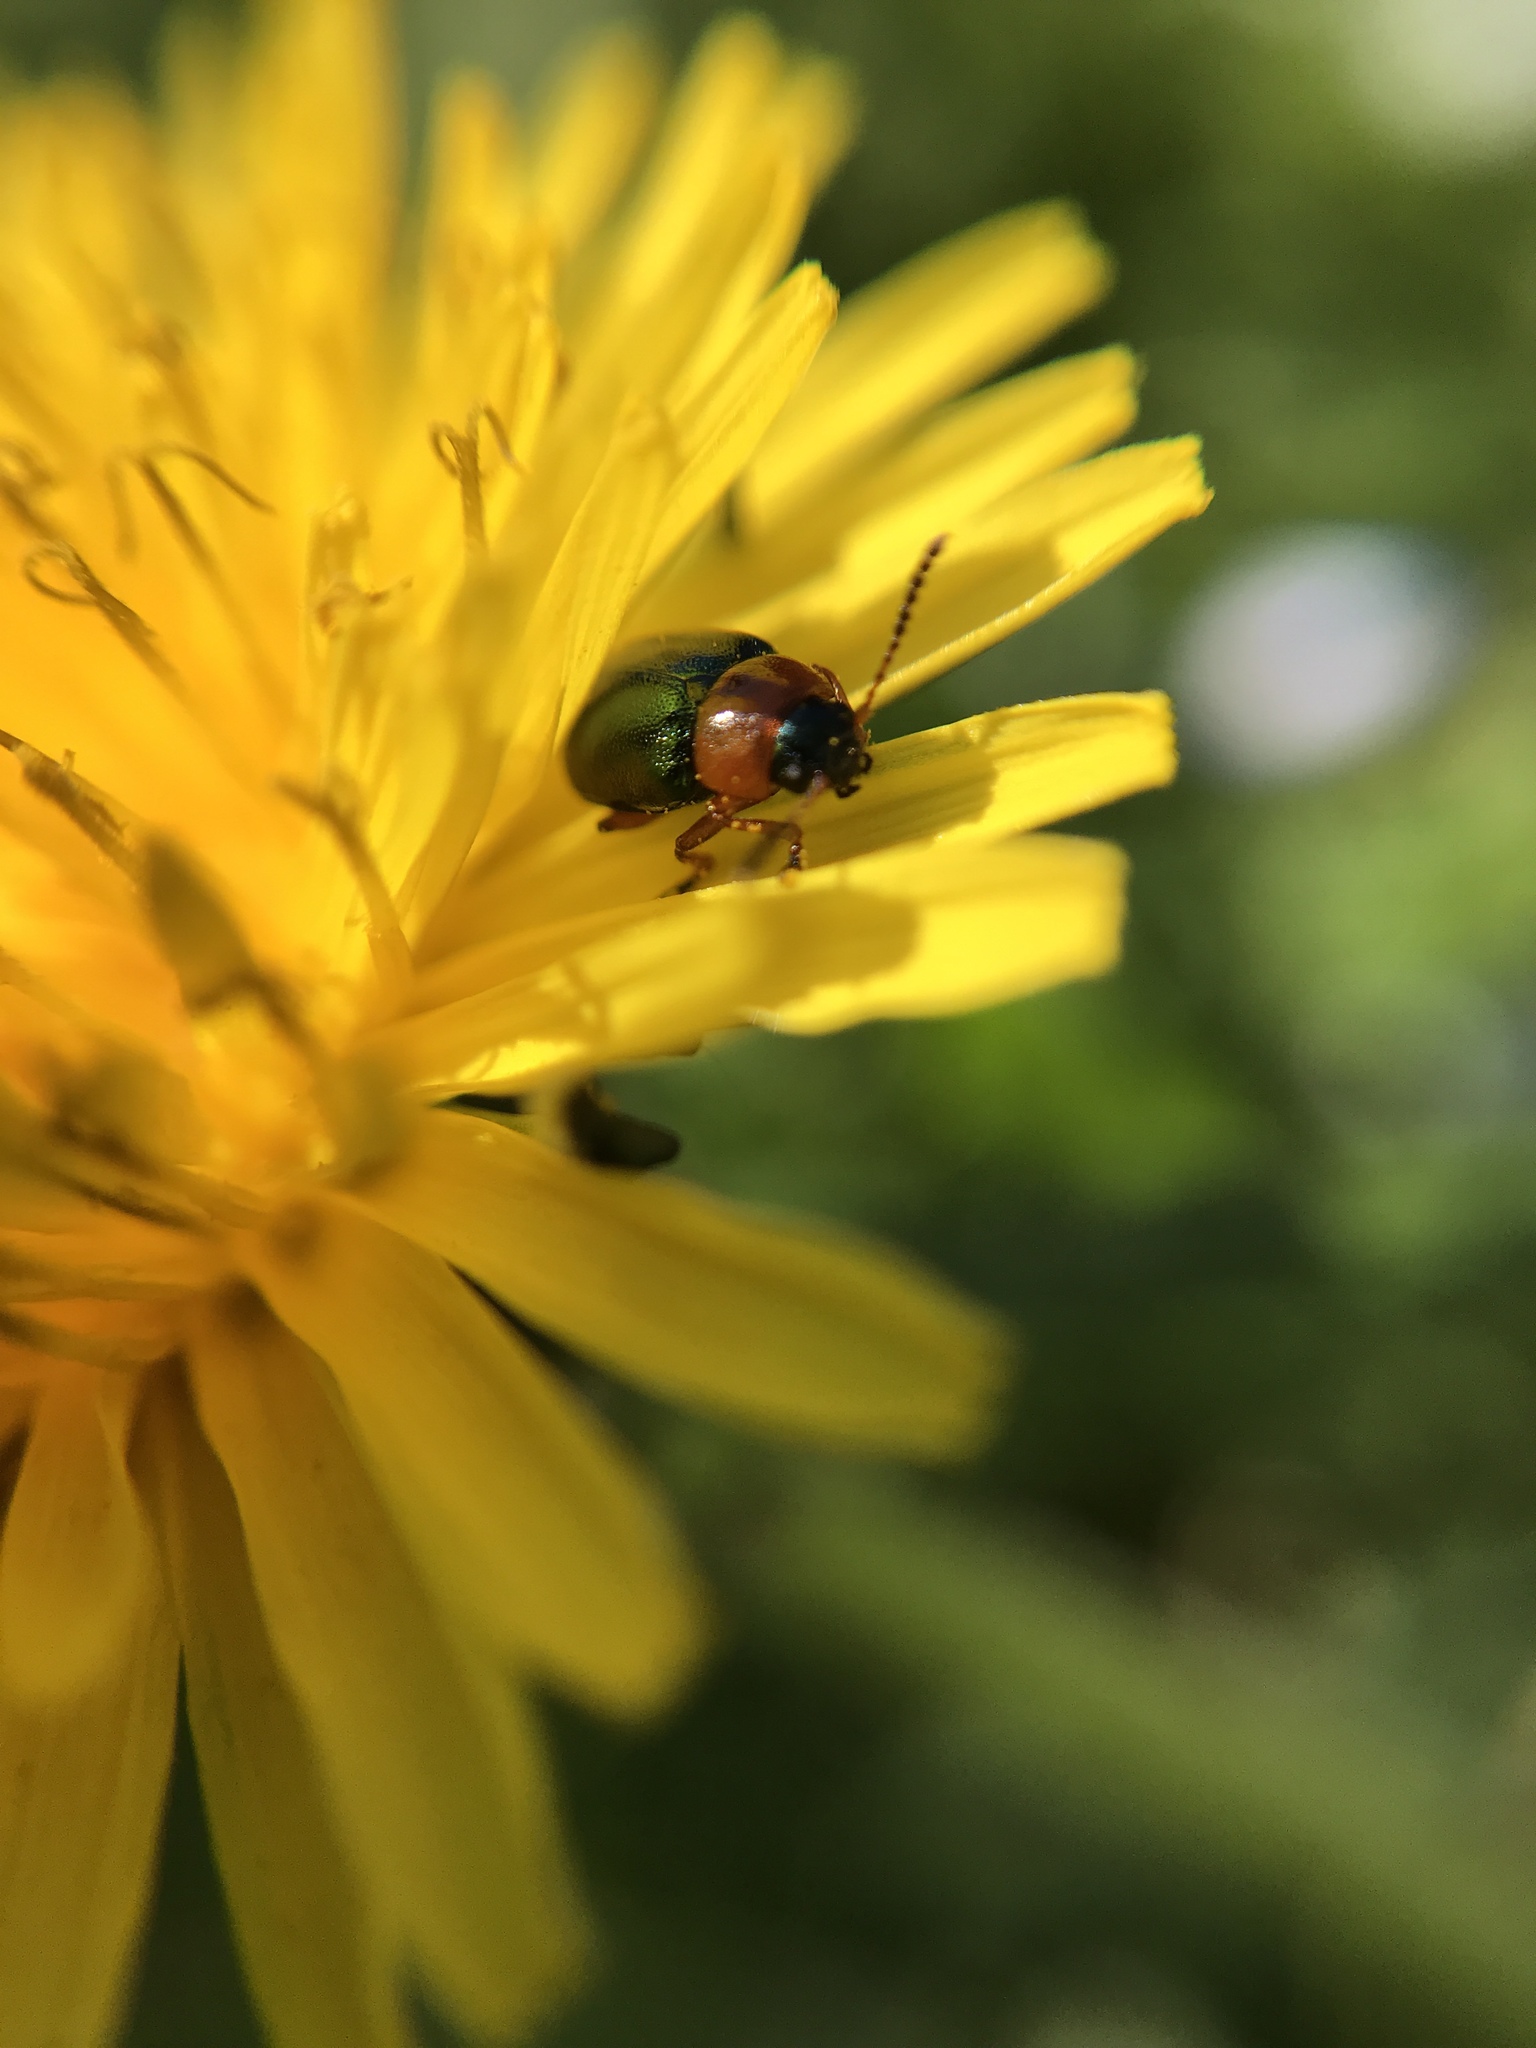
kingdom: Animalia
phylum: Arthropoda
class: Insecta
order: Coleoptera
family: Chrysomelidae
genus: Gastrophysa
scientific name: Gastrophysa polygoni
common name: Knotweed leaf beetle
